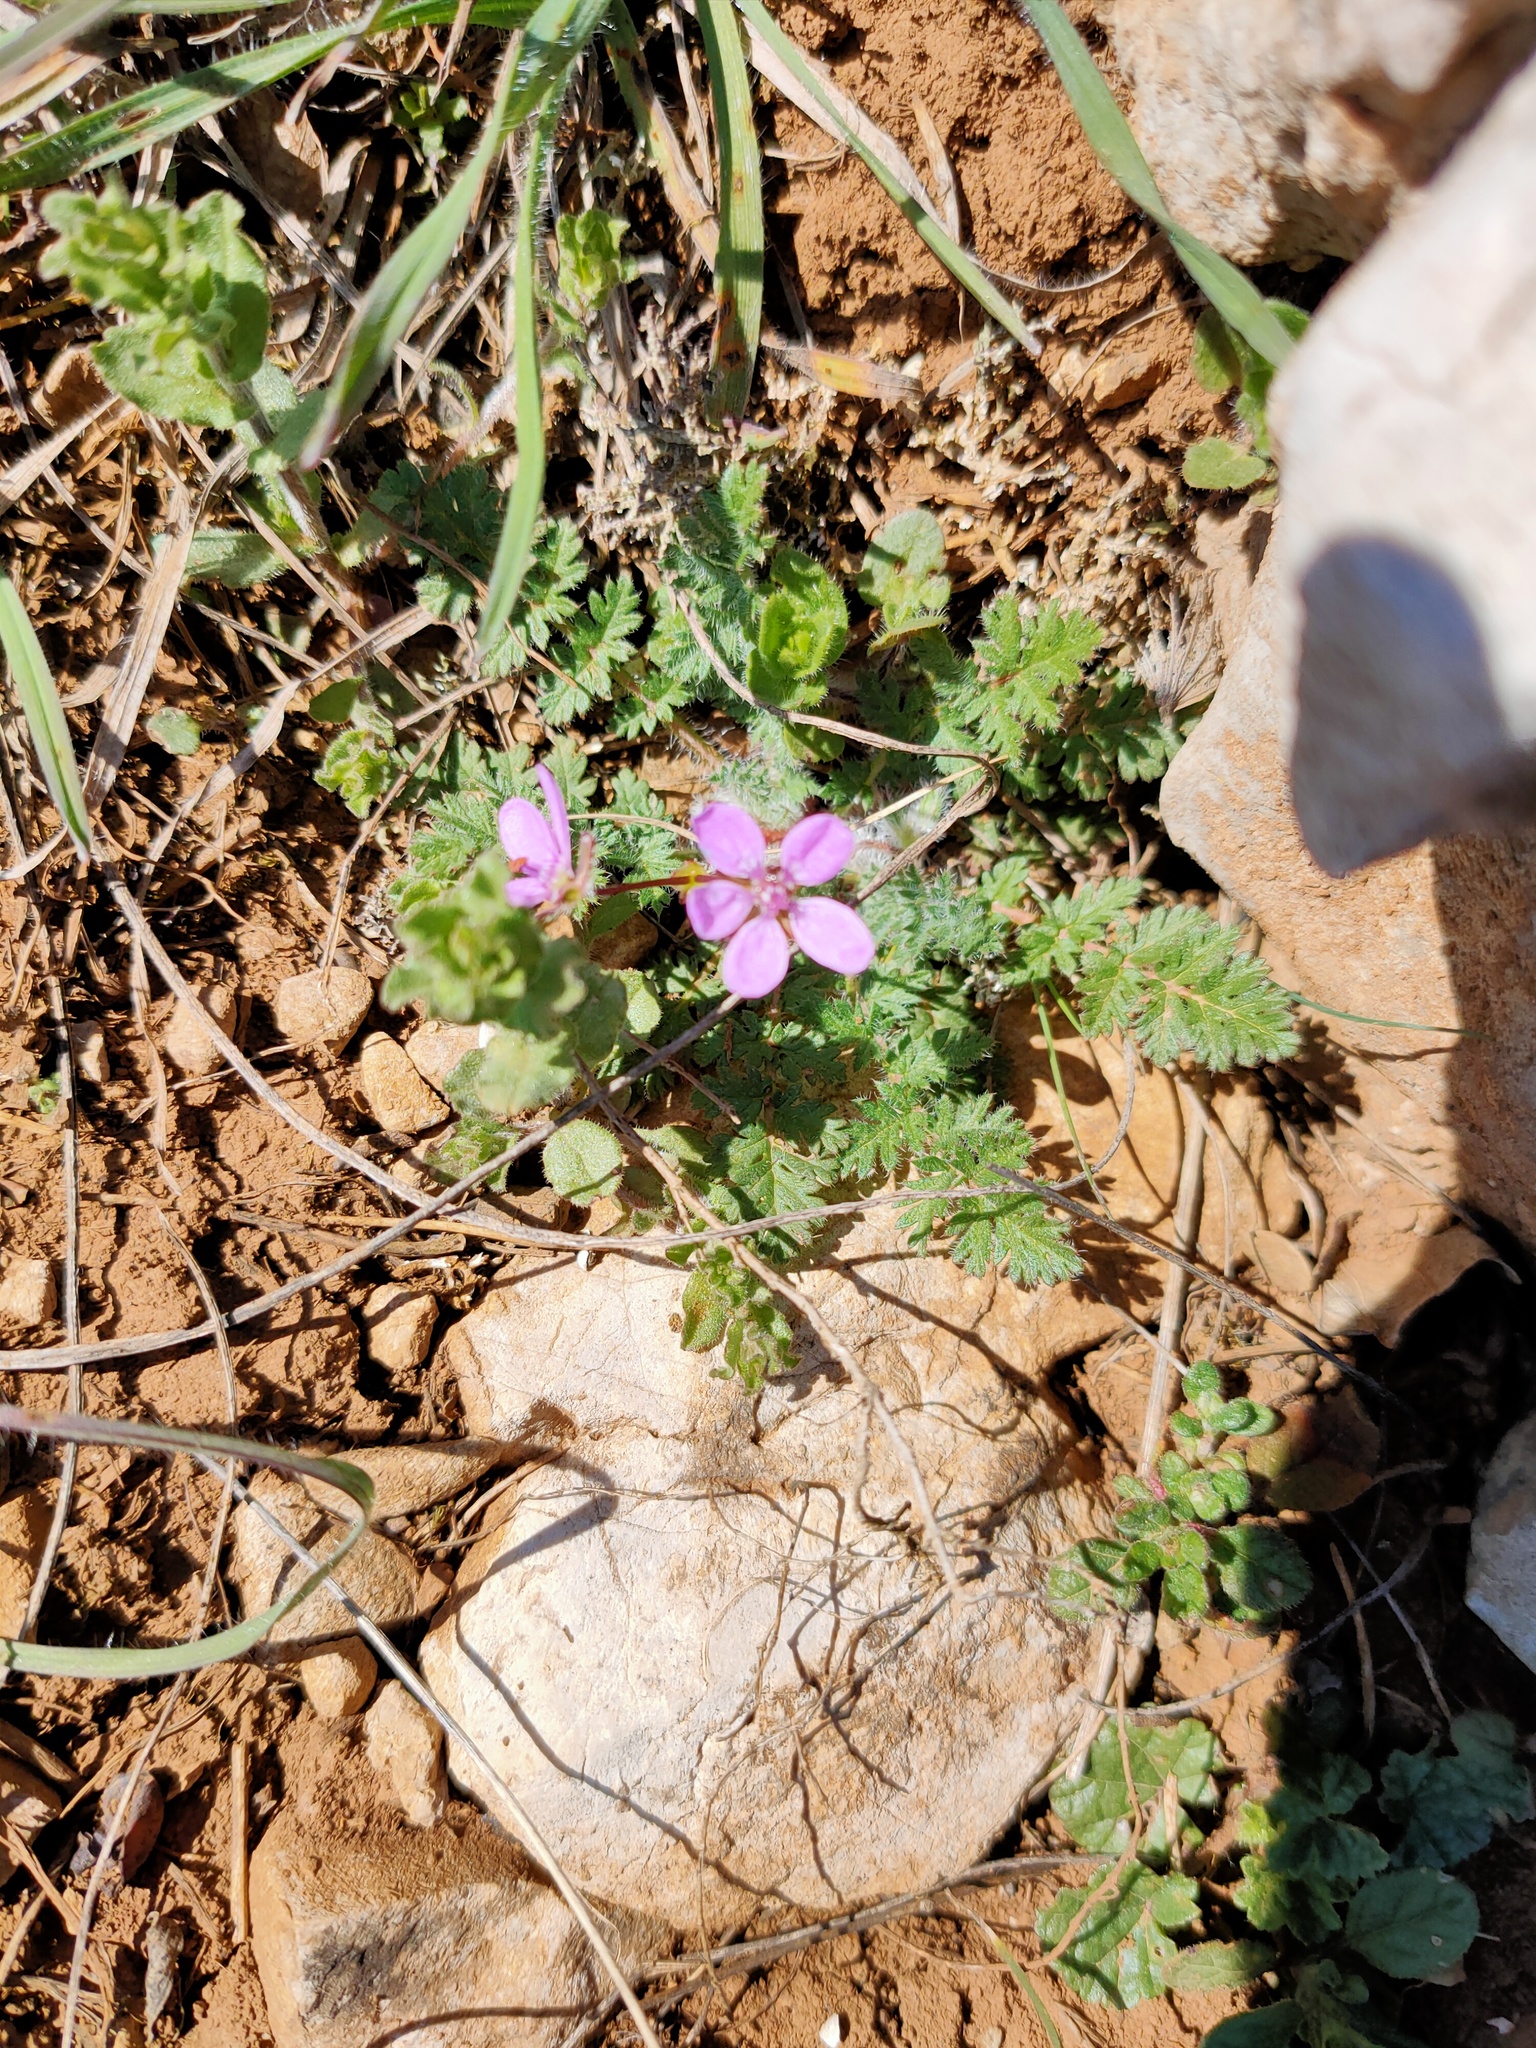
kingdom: Plantae
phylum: Tracheophyta
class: Magnoliopsida
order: Geraniales
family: Geraniaceae
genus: Erodium
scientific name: Erodium cicutarium
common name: Common stork's-bill
